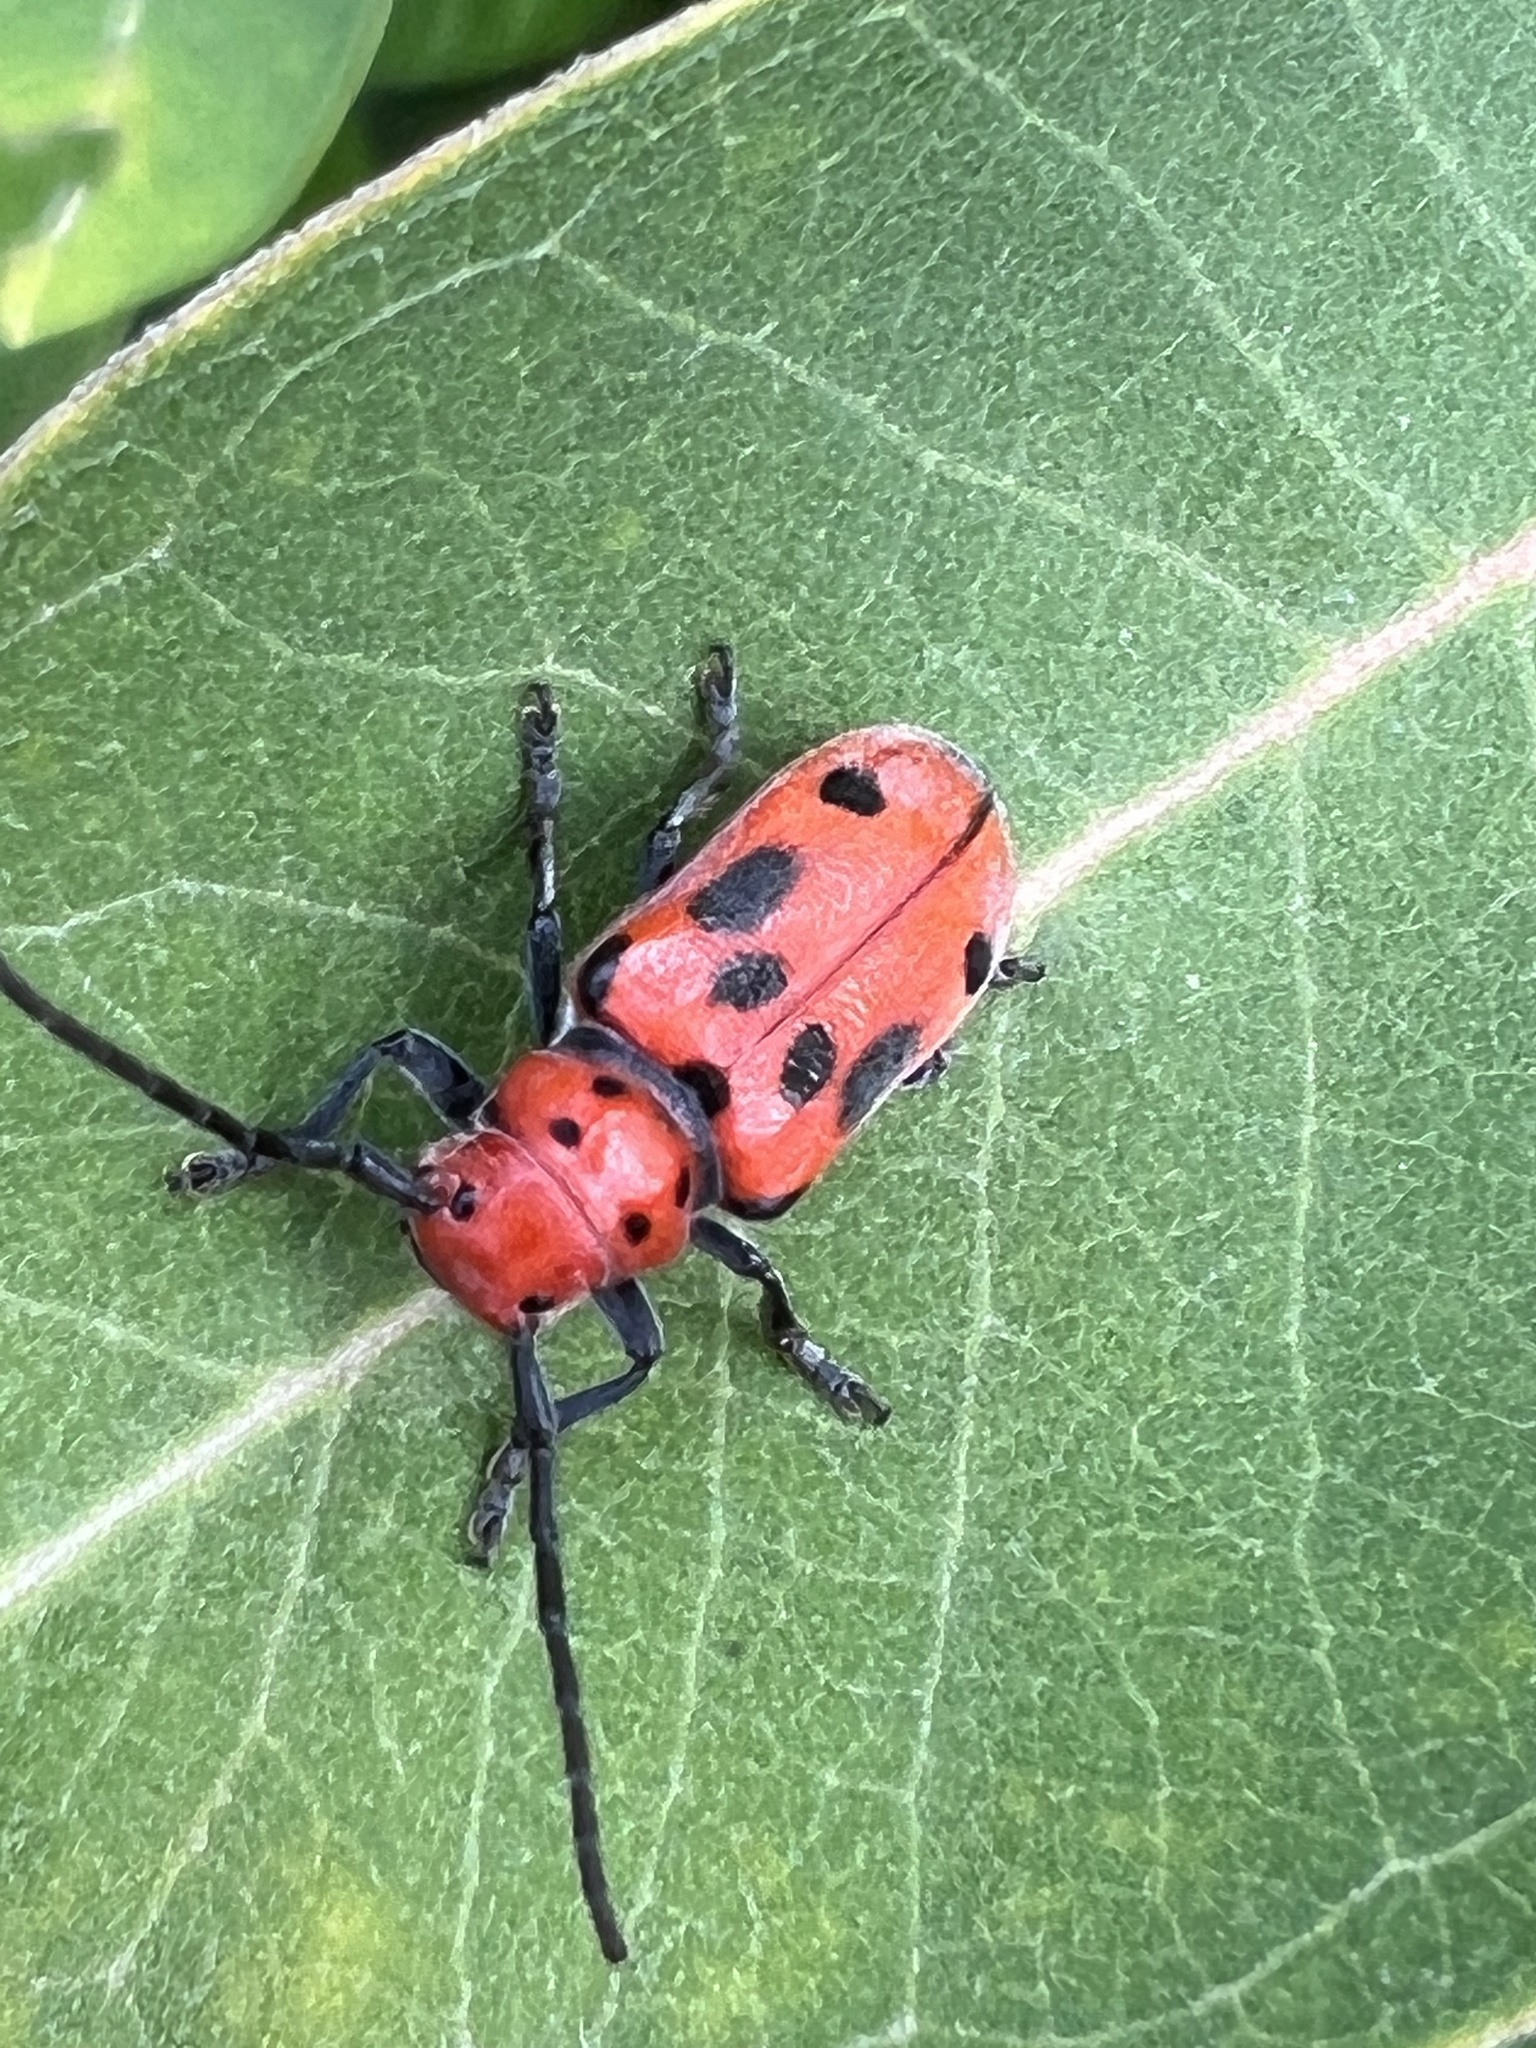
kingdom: Animalia
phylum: Arthropoda
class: Insecta
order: Coleoptera
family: Cerambycidae
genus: Tetraopes
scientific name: Tetraopes tetrophthalmus
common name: Red milkweed beetle
